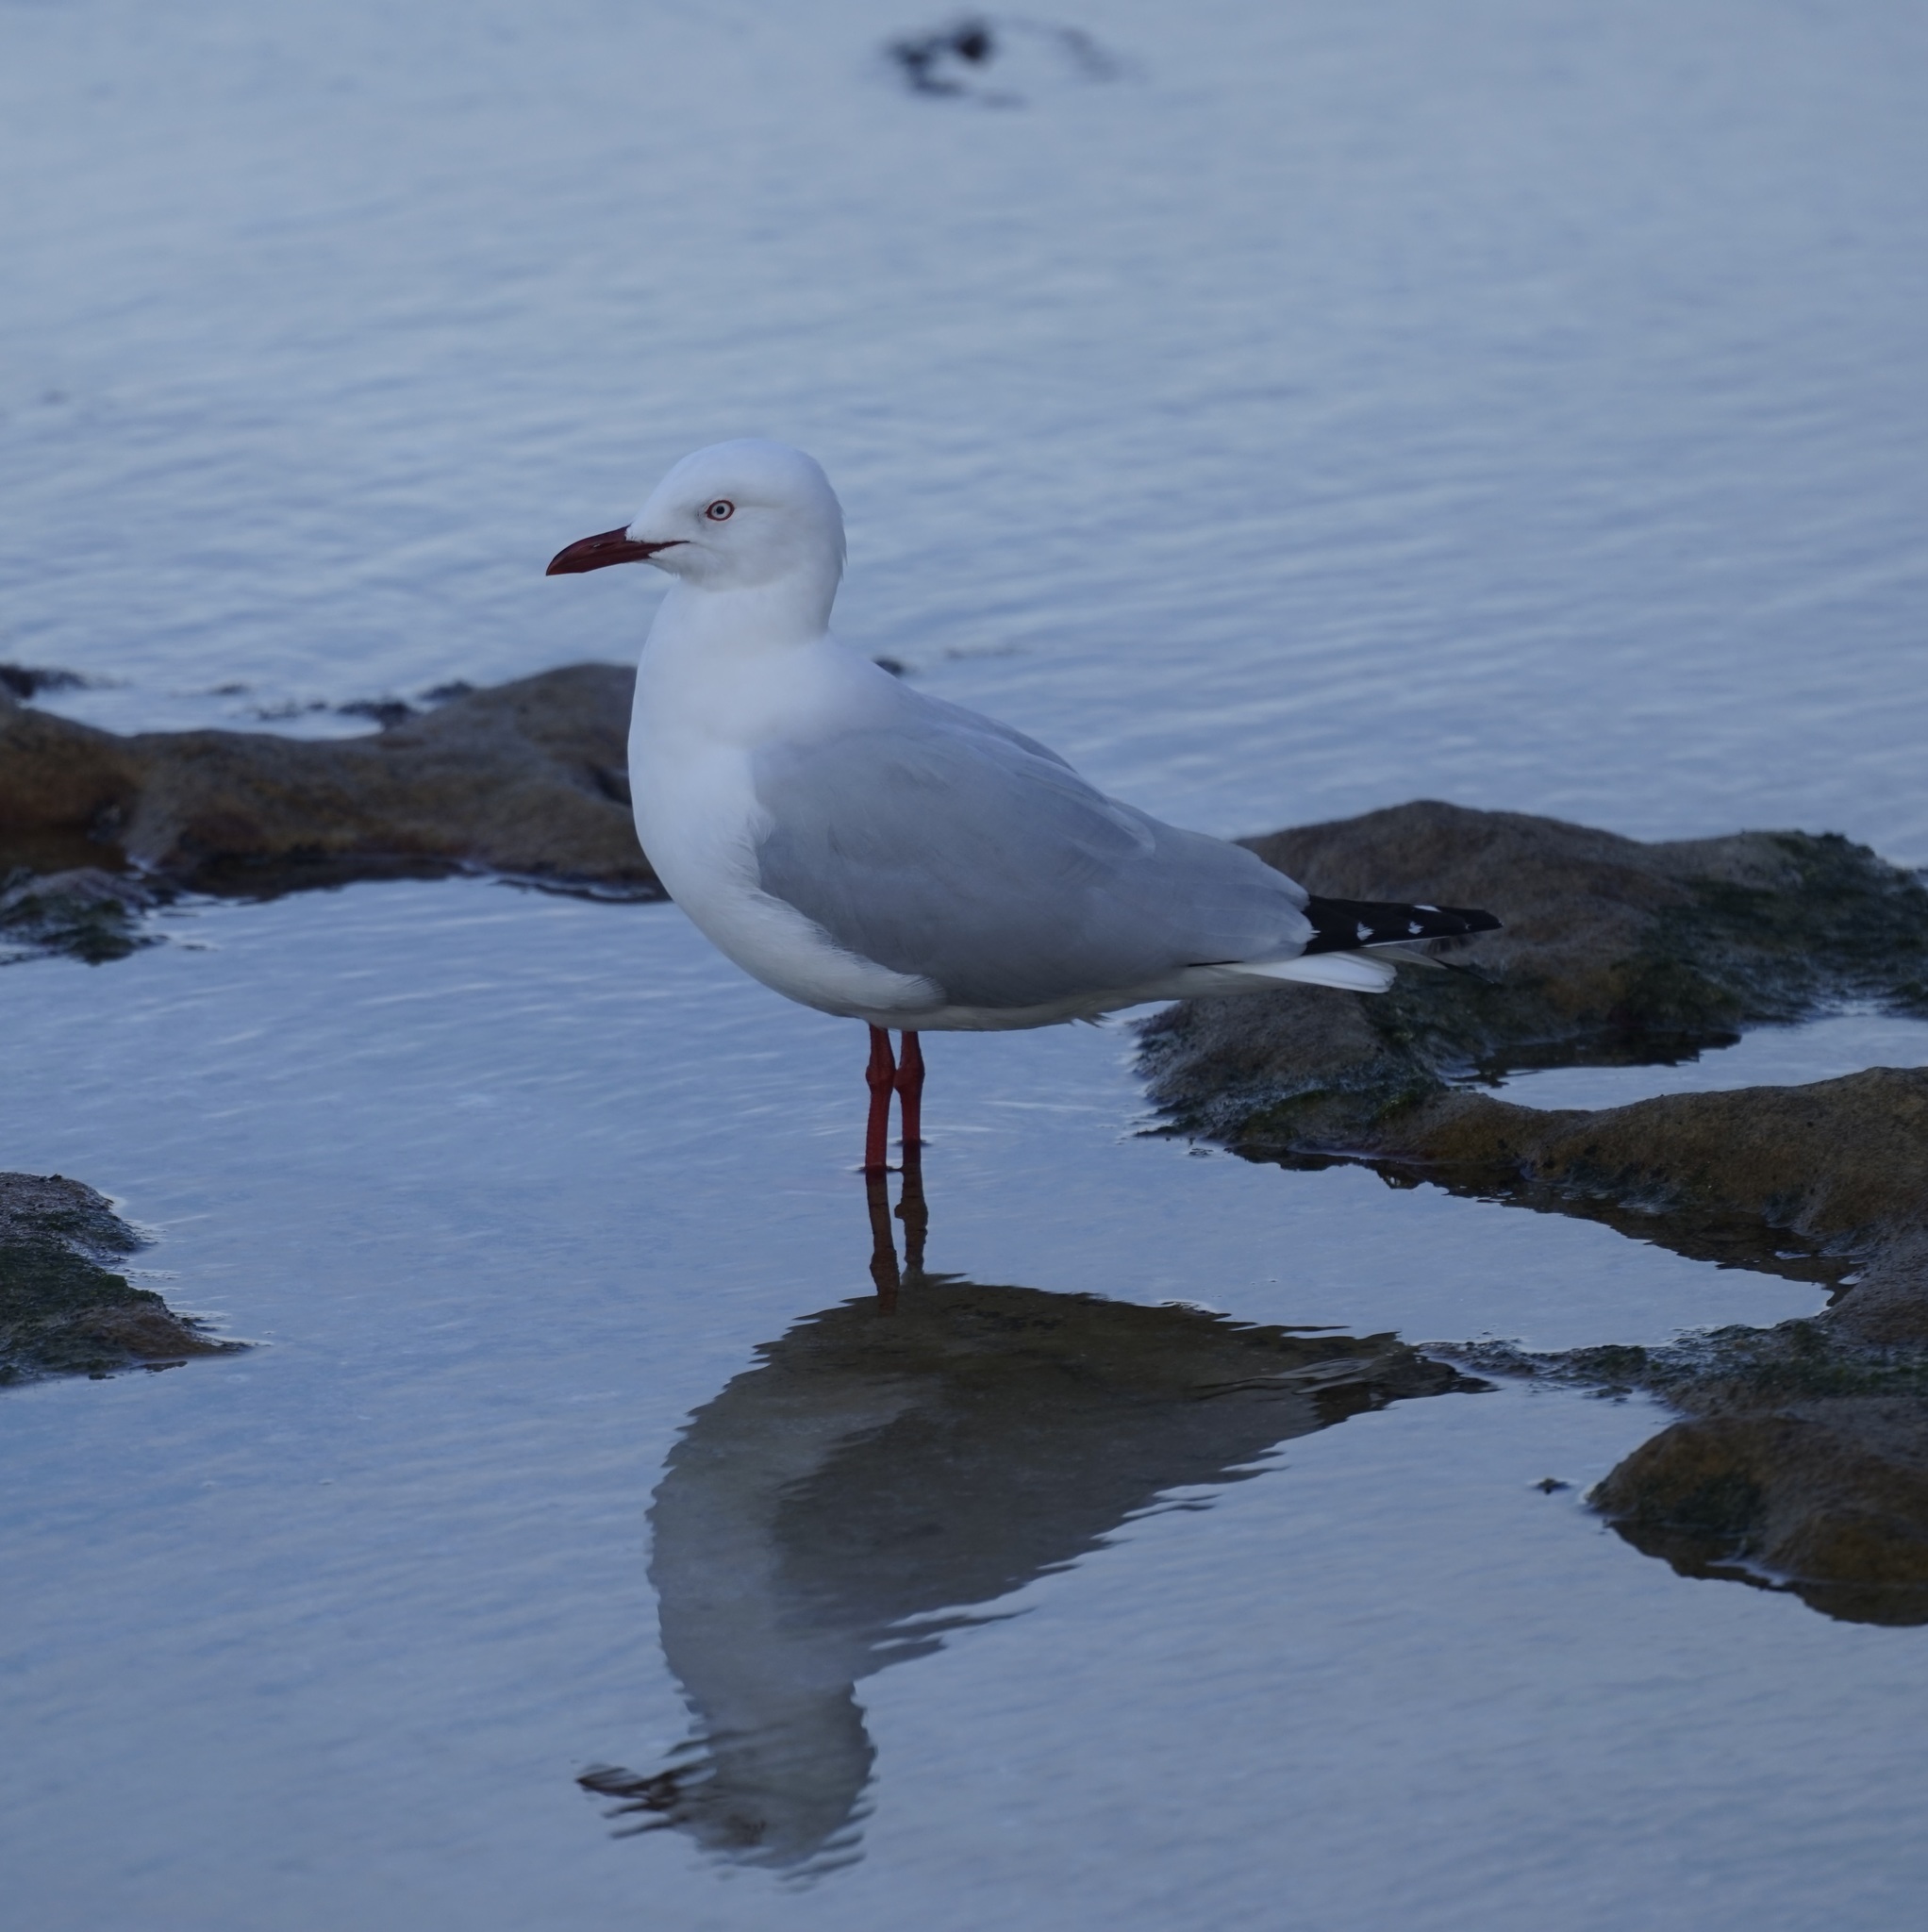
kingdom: Animalia
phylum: Chordata
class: Aves
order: Charadriiformes
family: Laridae
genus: Chroicocephalus
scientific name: Chroicocephalus novaehollandiae
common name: Silver gull
